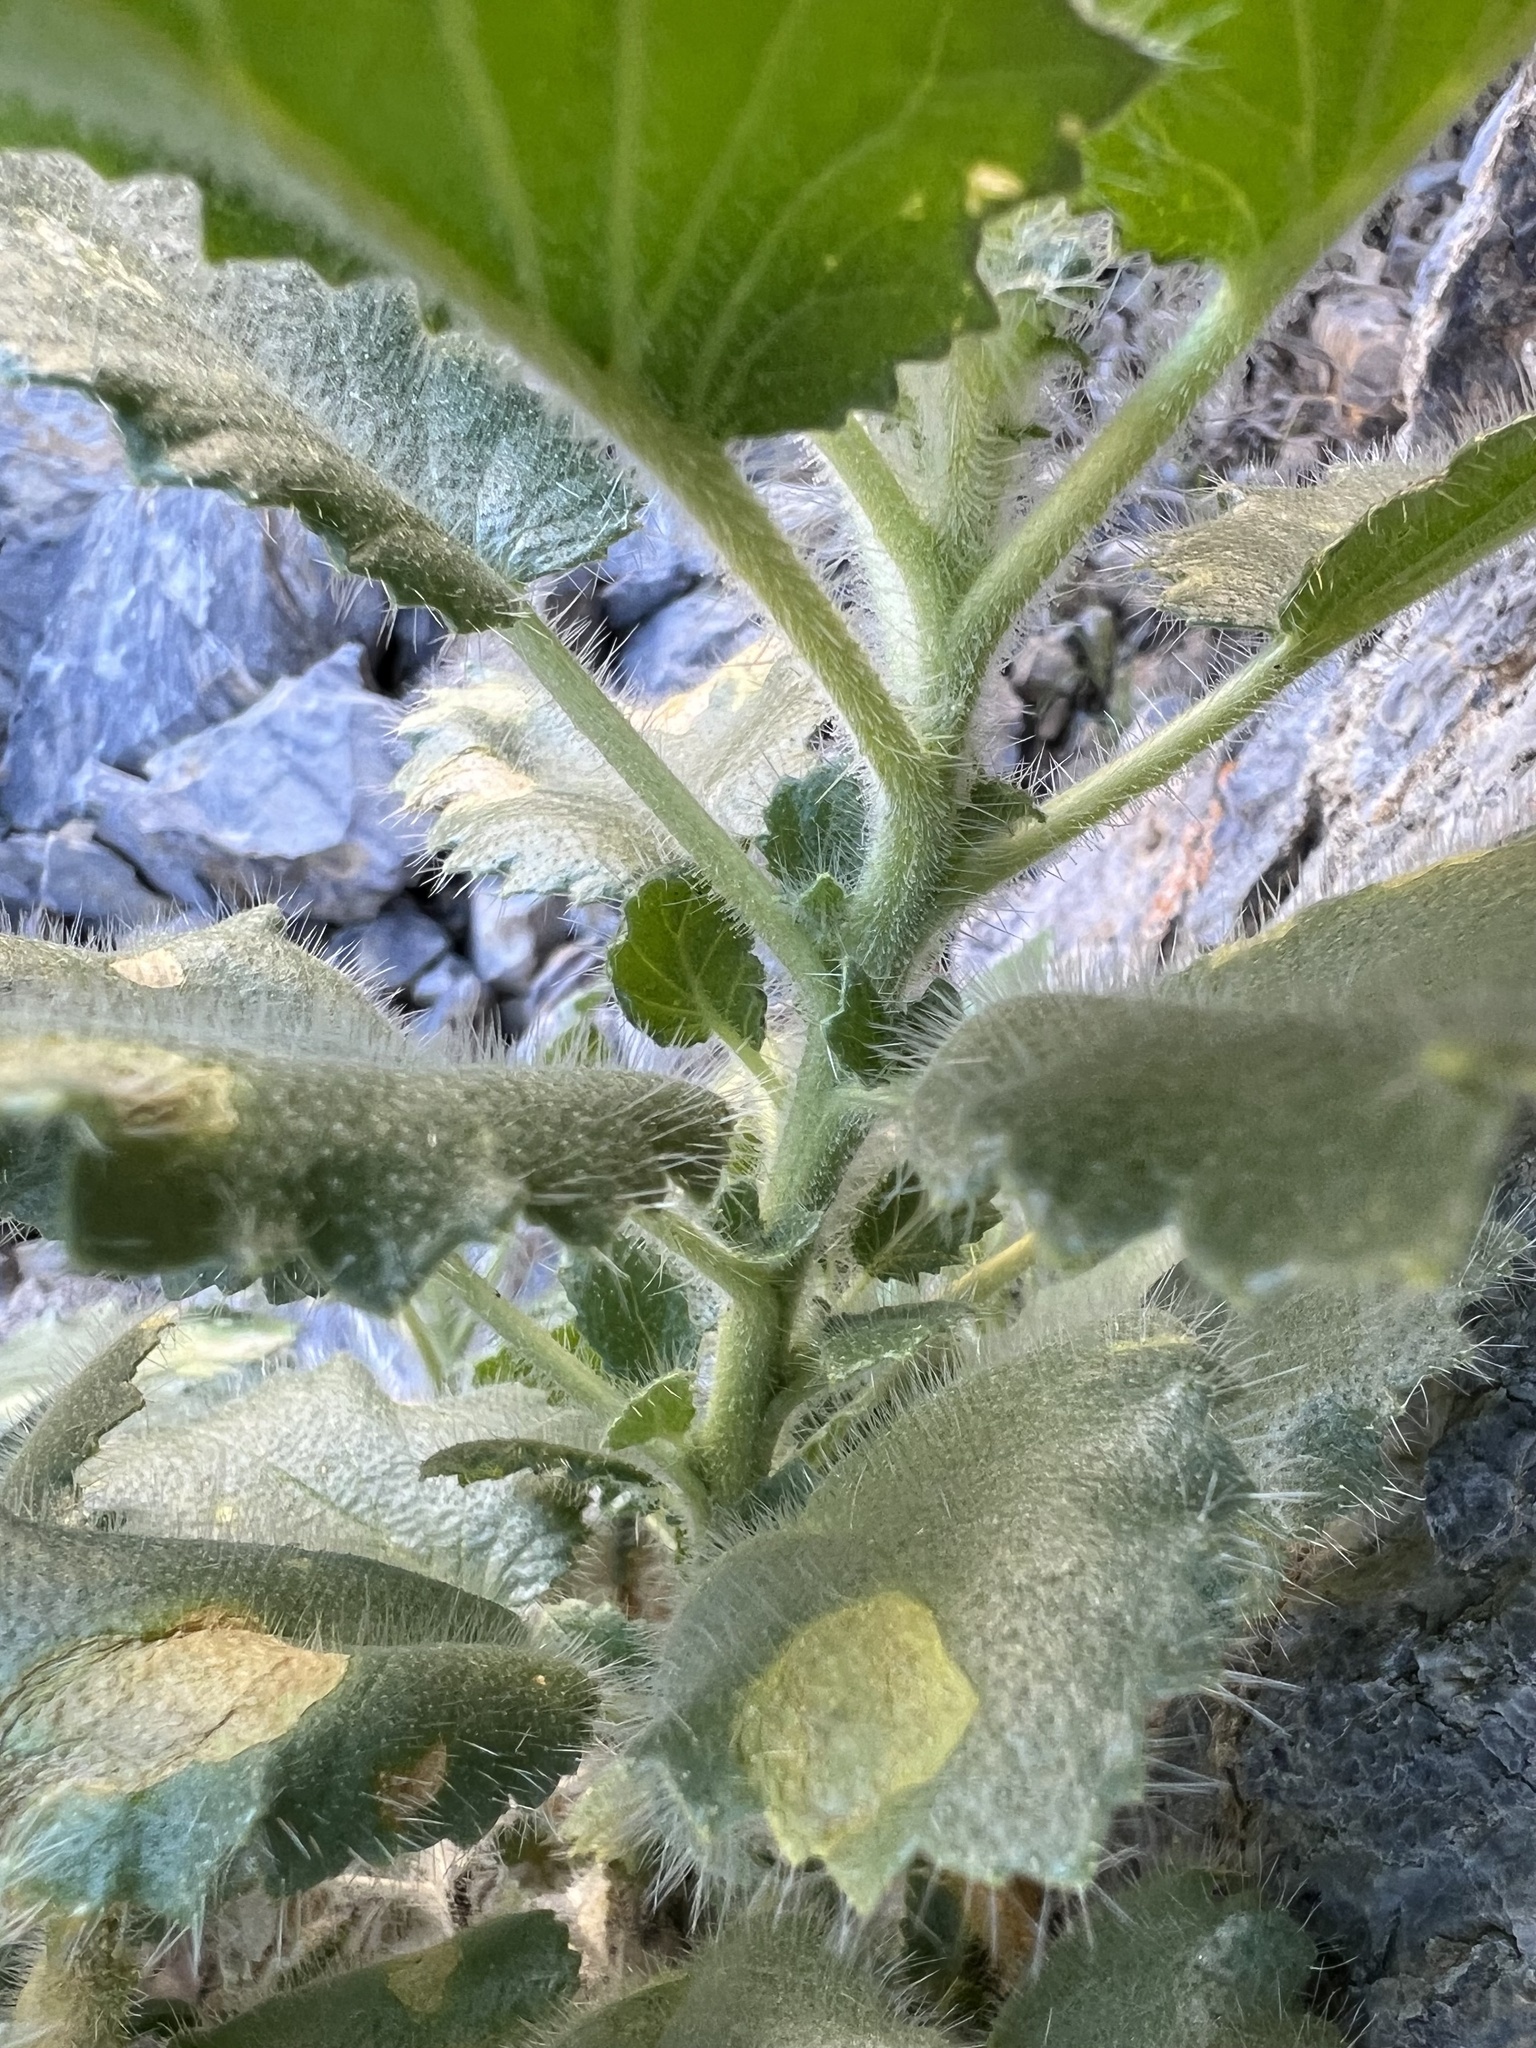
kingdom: Plantae
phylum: Tracheophyta
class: Magnoliopsida
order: Cornales
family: Loasaceae
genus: Eucnide
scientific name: Eucnide urens
